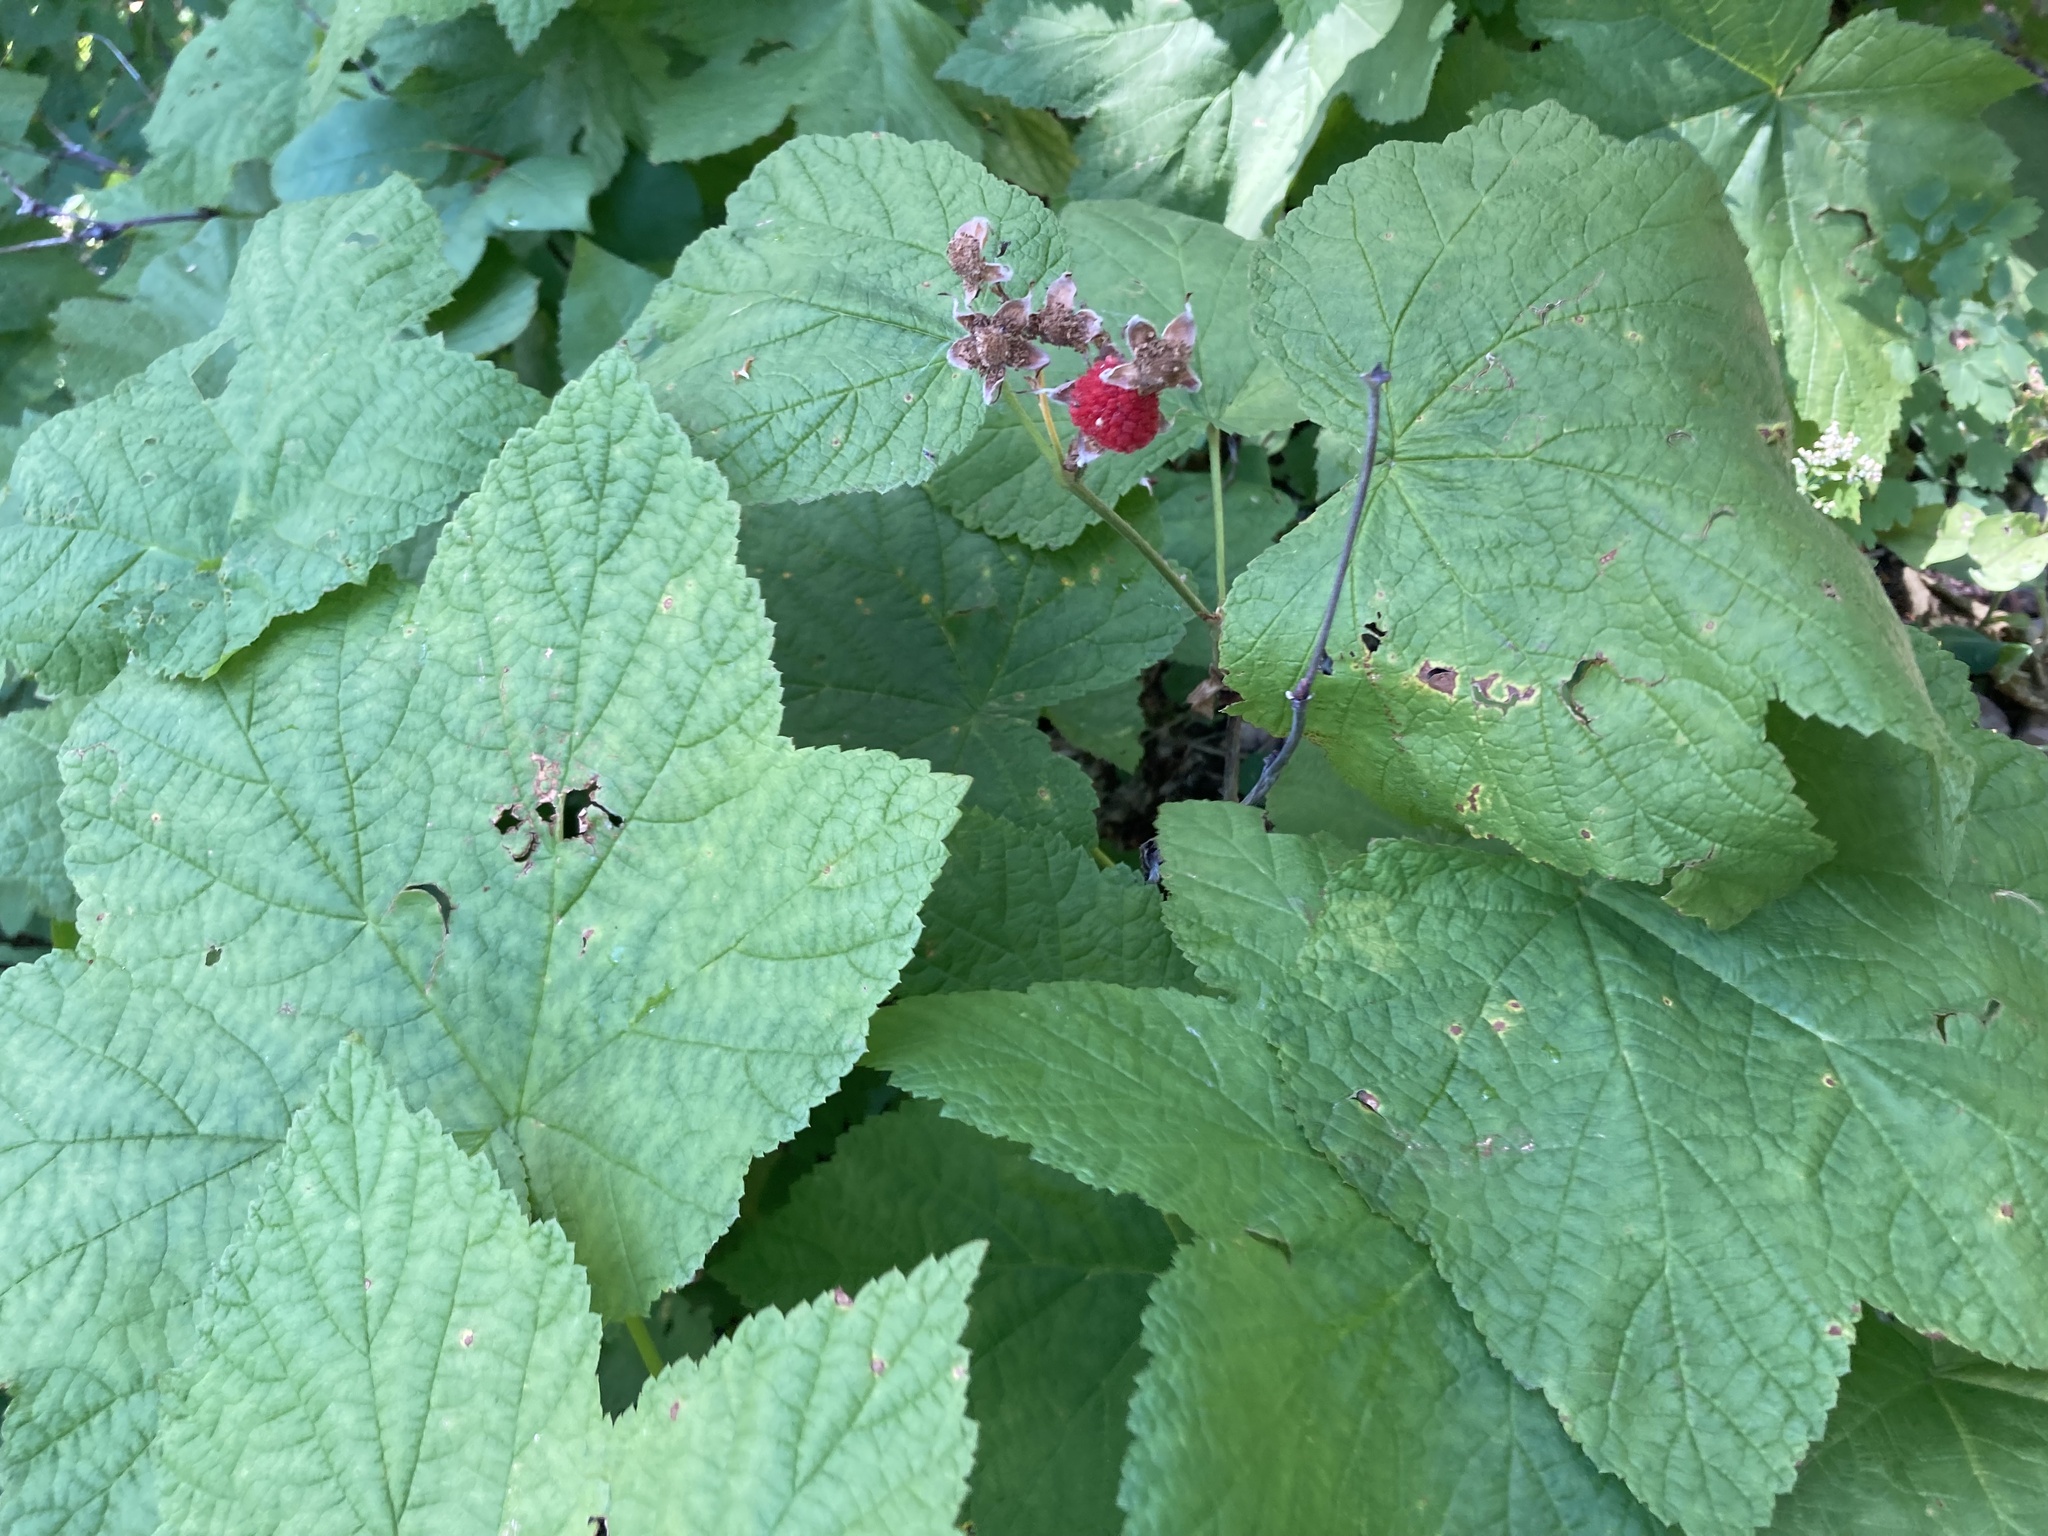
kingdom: Plantae
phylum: Tracheophyta
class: Magnoliopsida
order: Rosales
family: Rosaceae
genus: Rubus
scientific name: Rubus parviflorus
